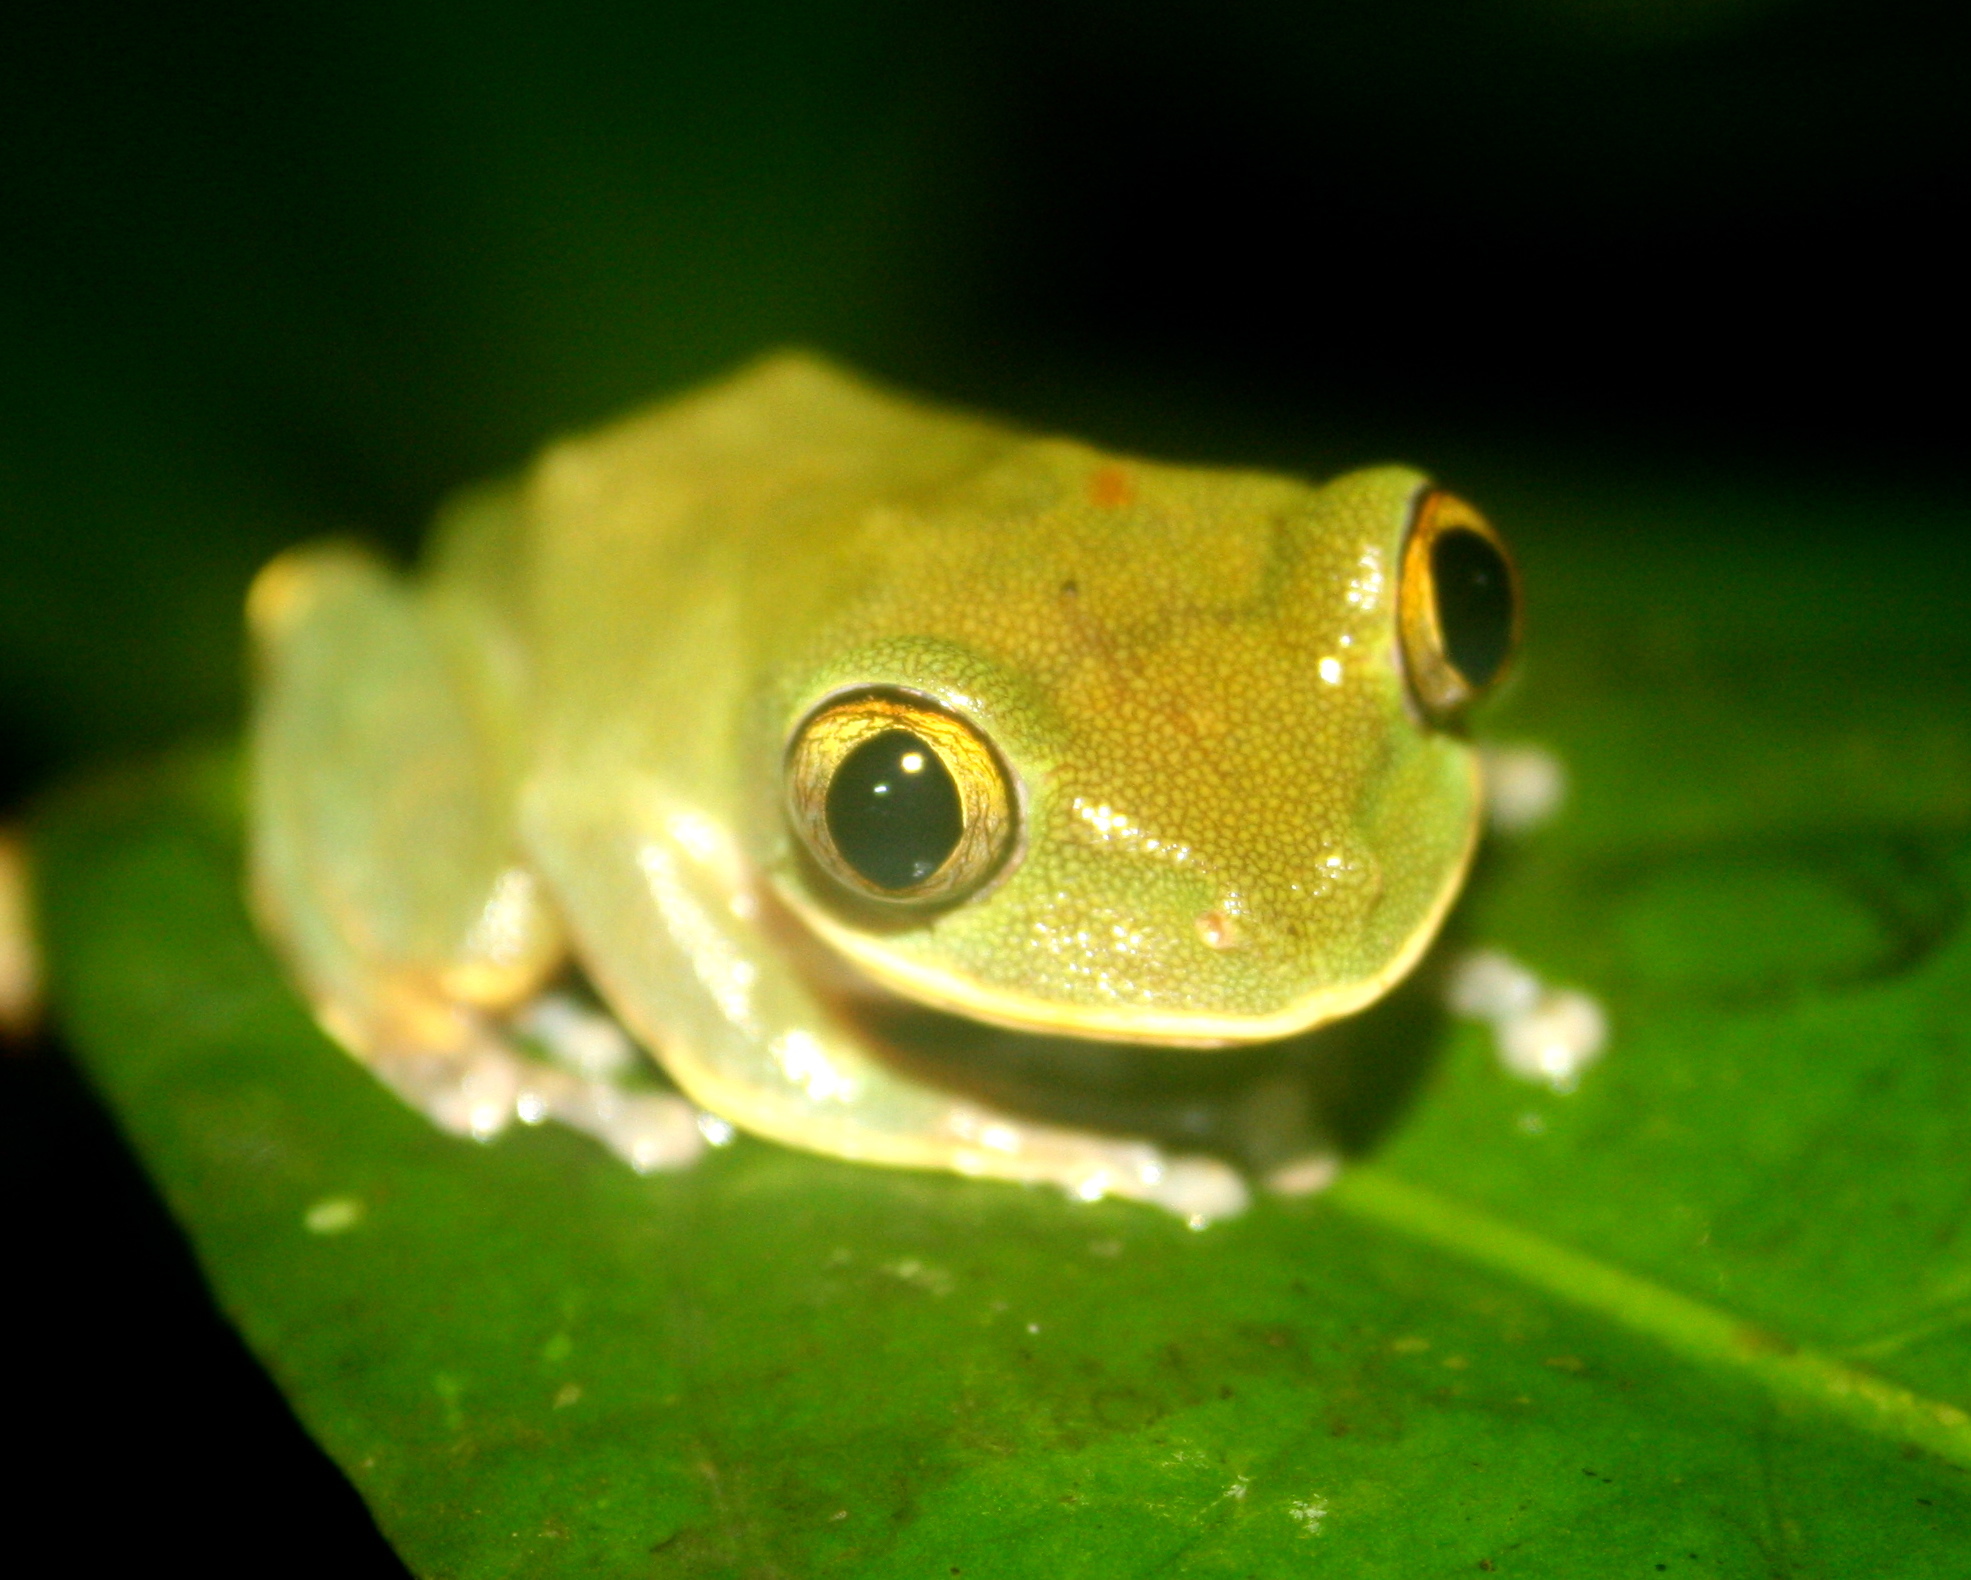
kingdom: Animalia
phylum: Chordata
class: Amphibia
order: Anura
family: Arthroleptidae
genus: Leptopelis
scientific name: Leptopelis occidentalis
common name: Tai forest treefrog
